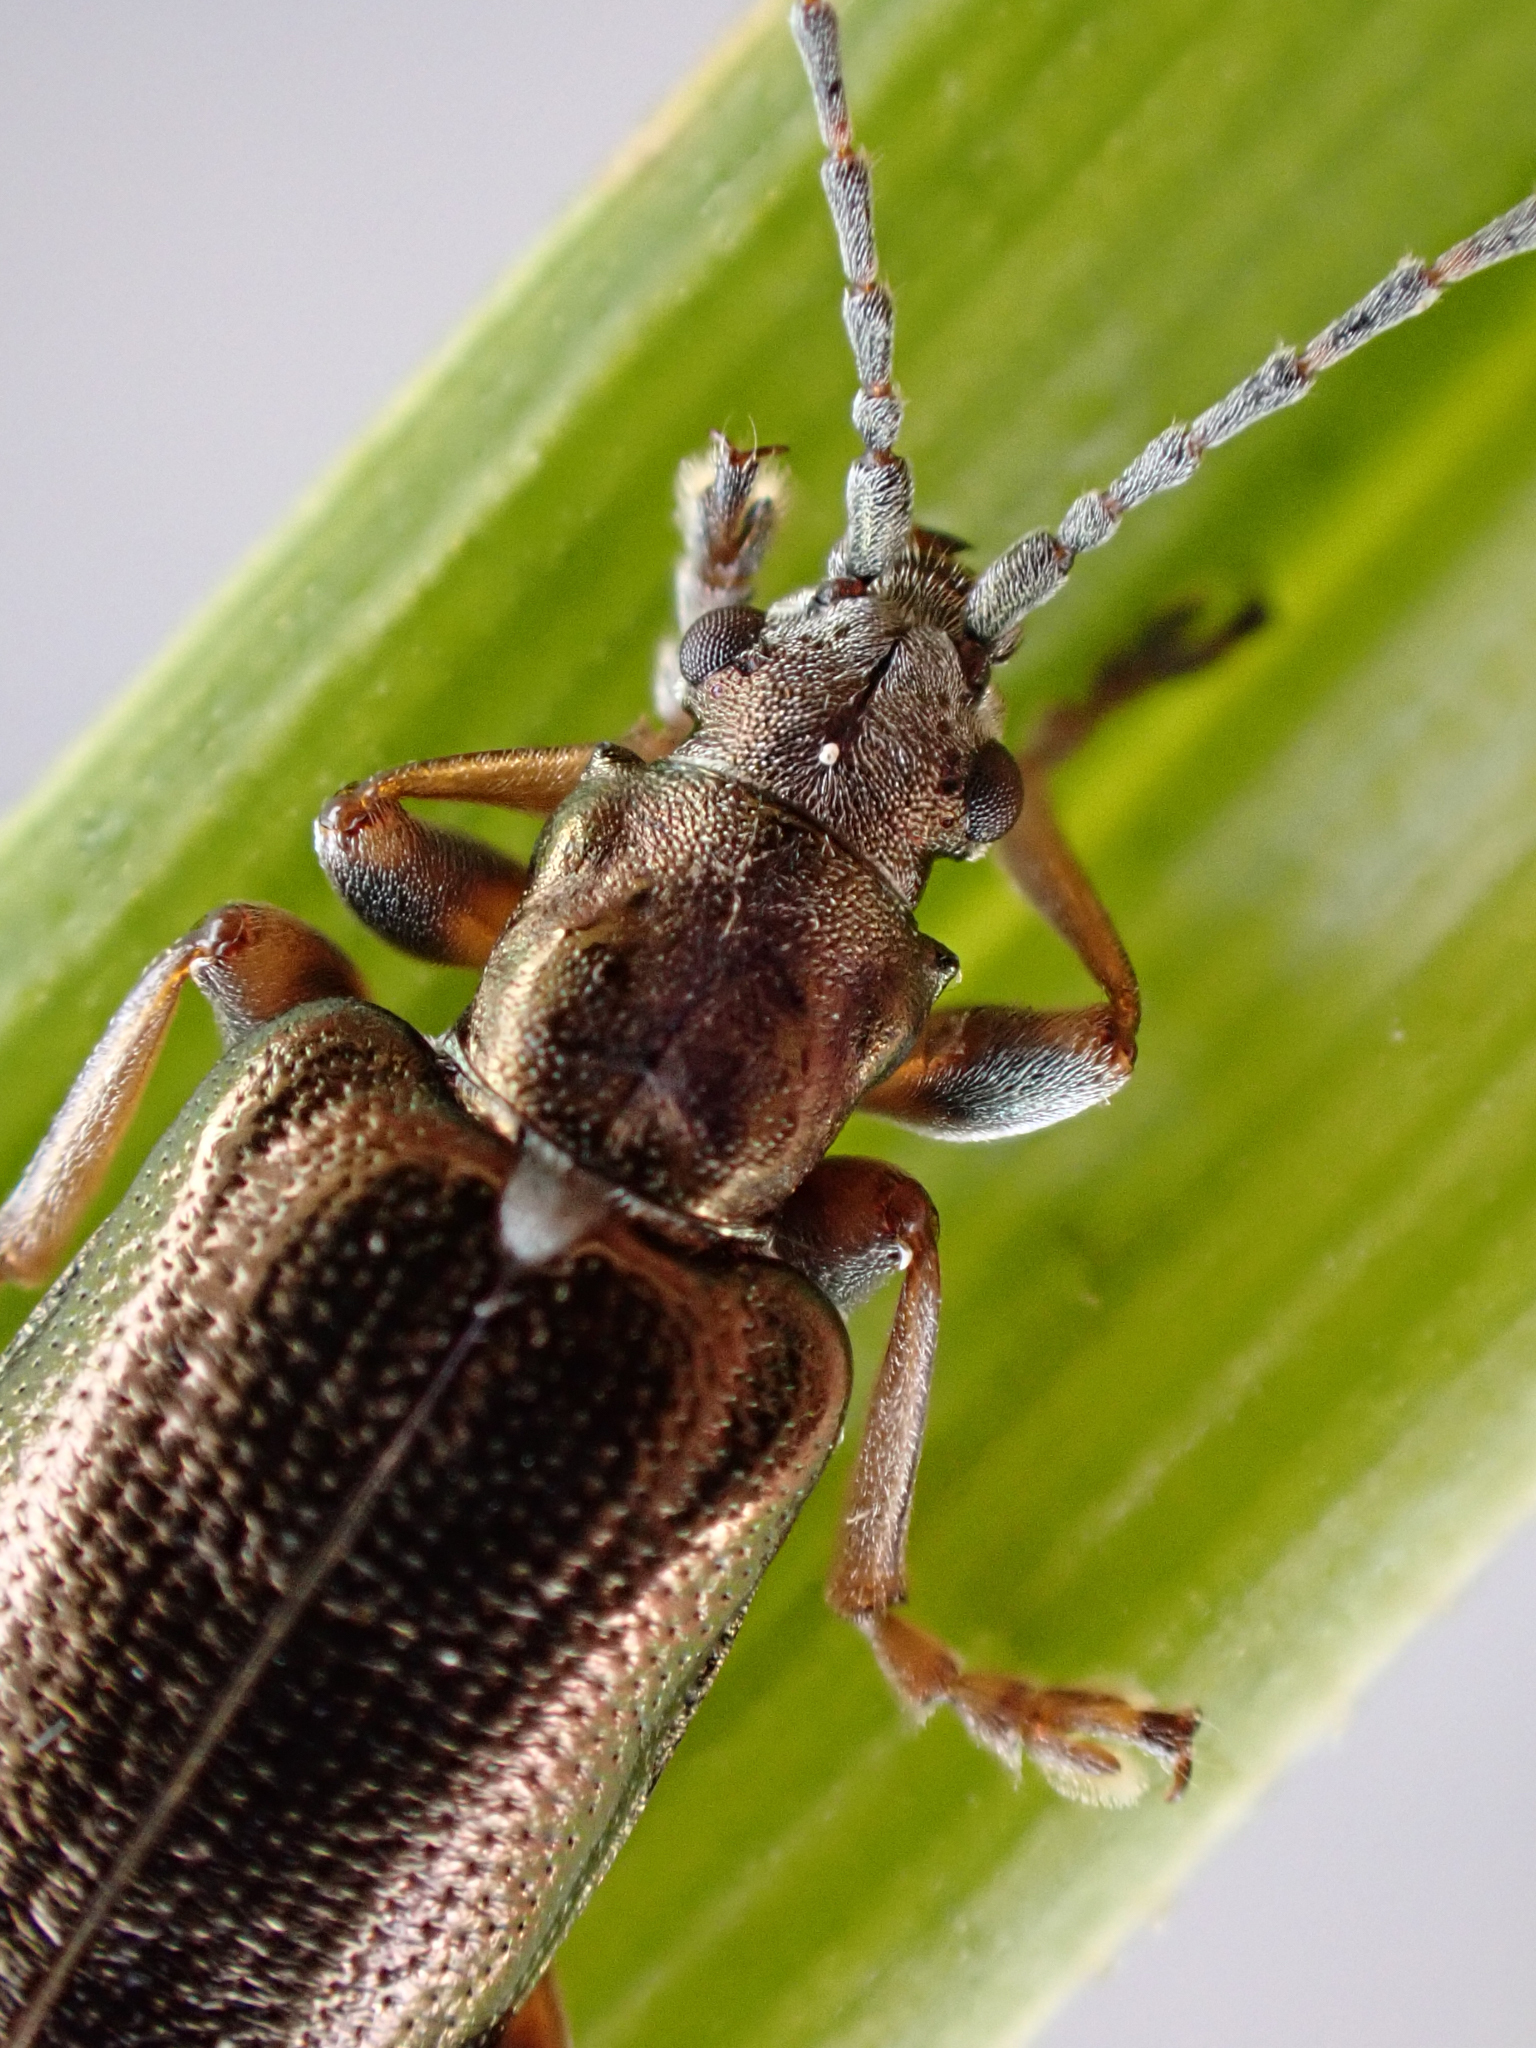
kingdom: Animalia
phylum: Arthropoda
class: Insecta
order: Coleoptera
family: Chrysomelidae
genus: Plateumaris
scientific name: Plateumaris germari
